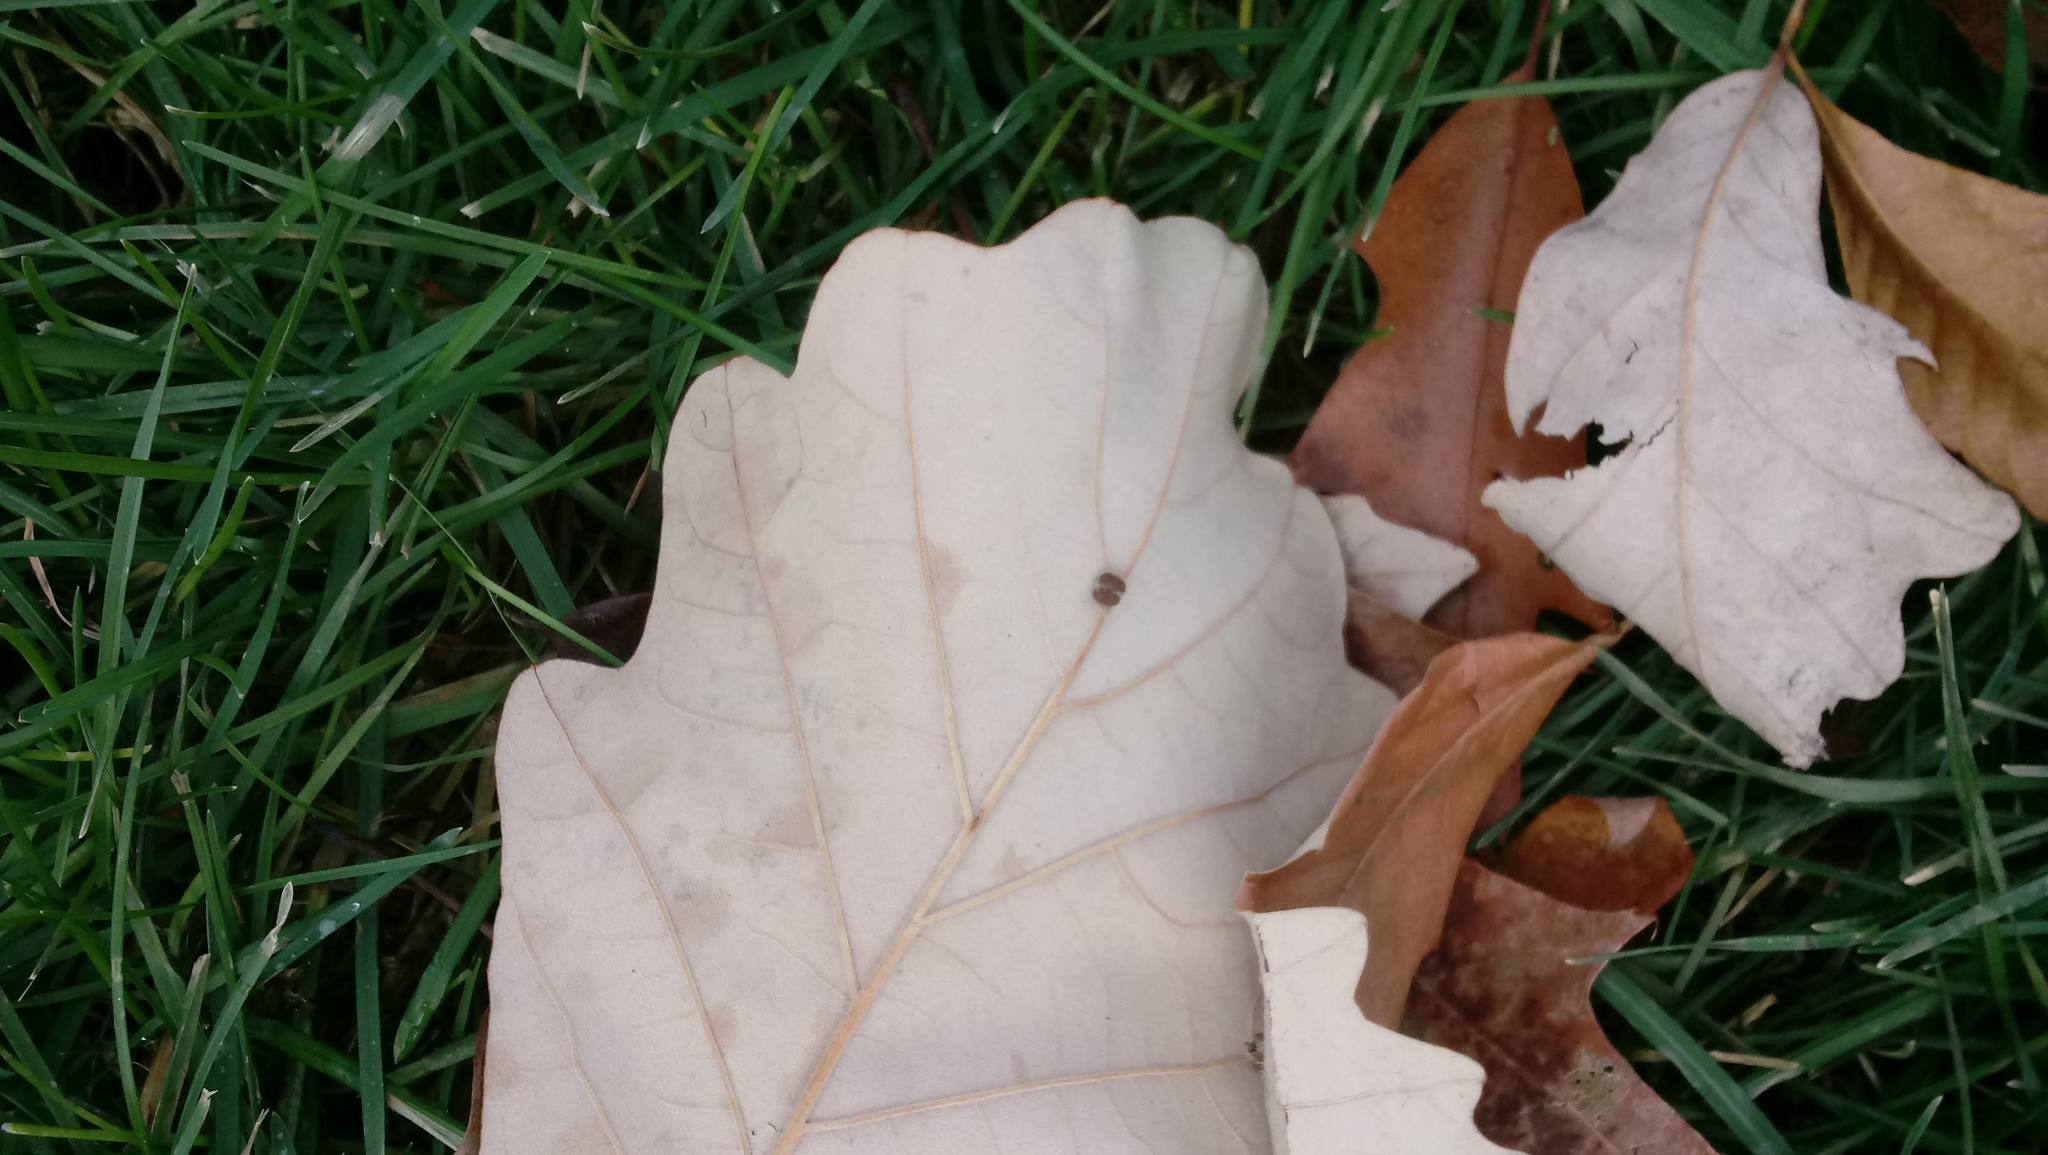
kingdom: Animalia
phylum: Arthropoda
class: Insecta
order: Hymenoptera
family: Cynipidae
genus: Andricus
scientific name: Andricus Druon ignotum
